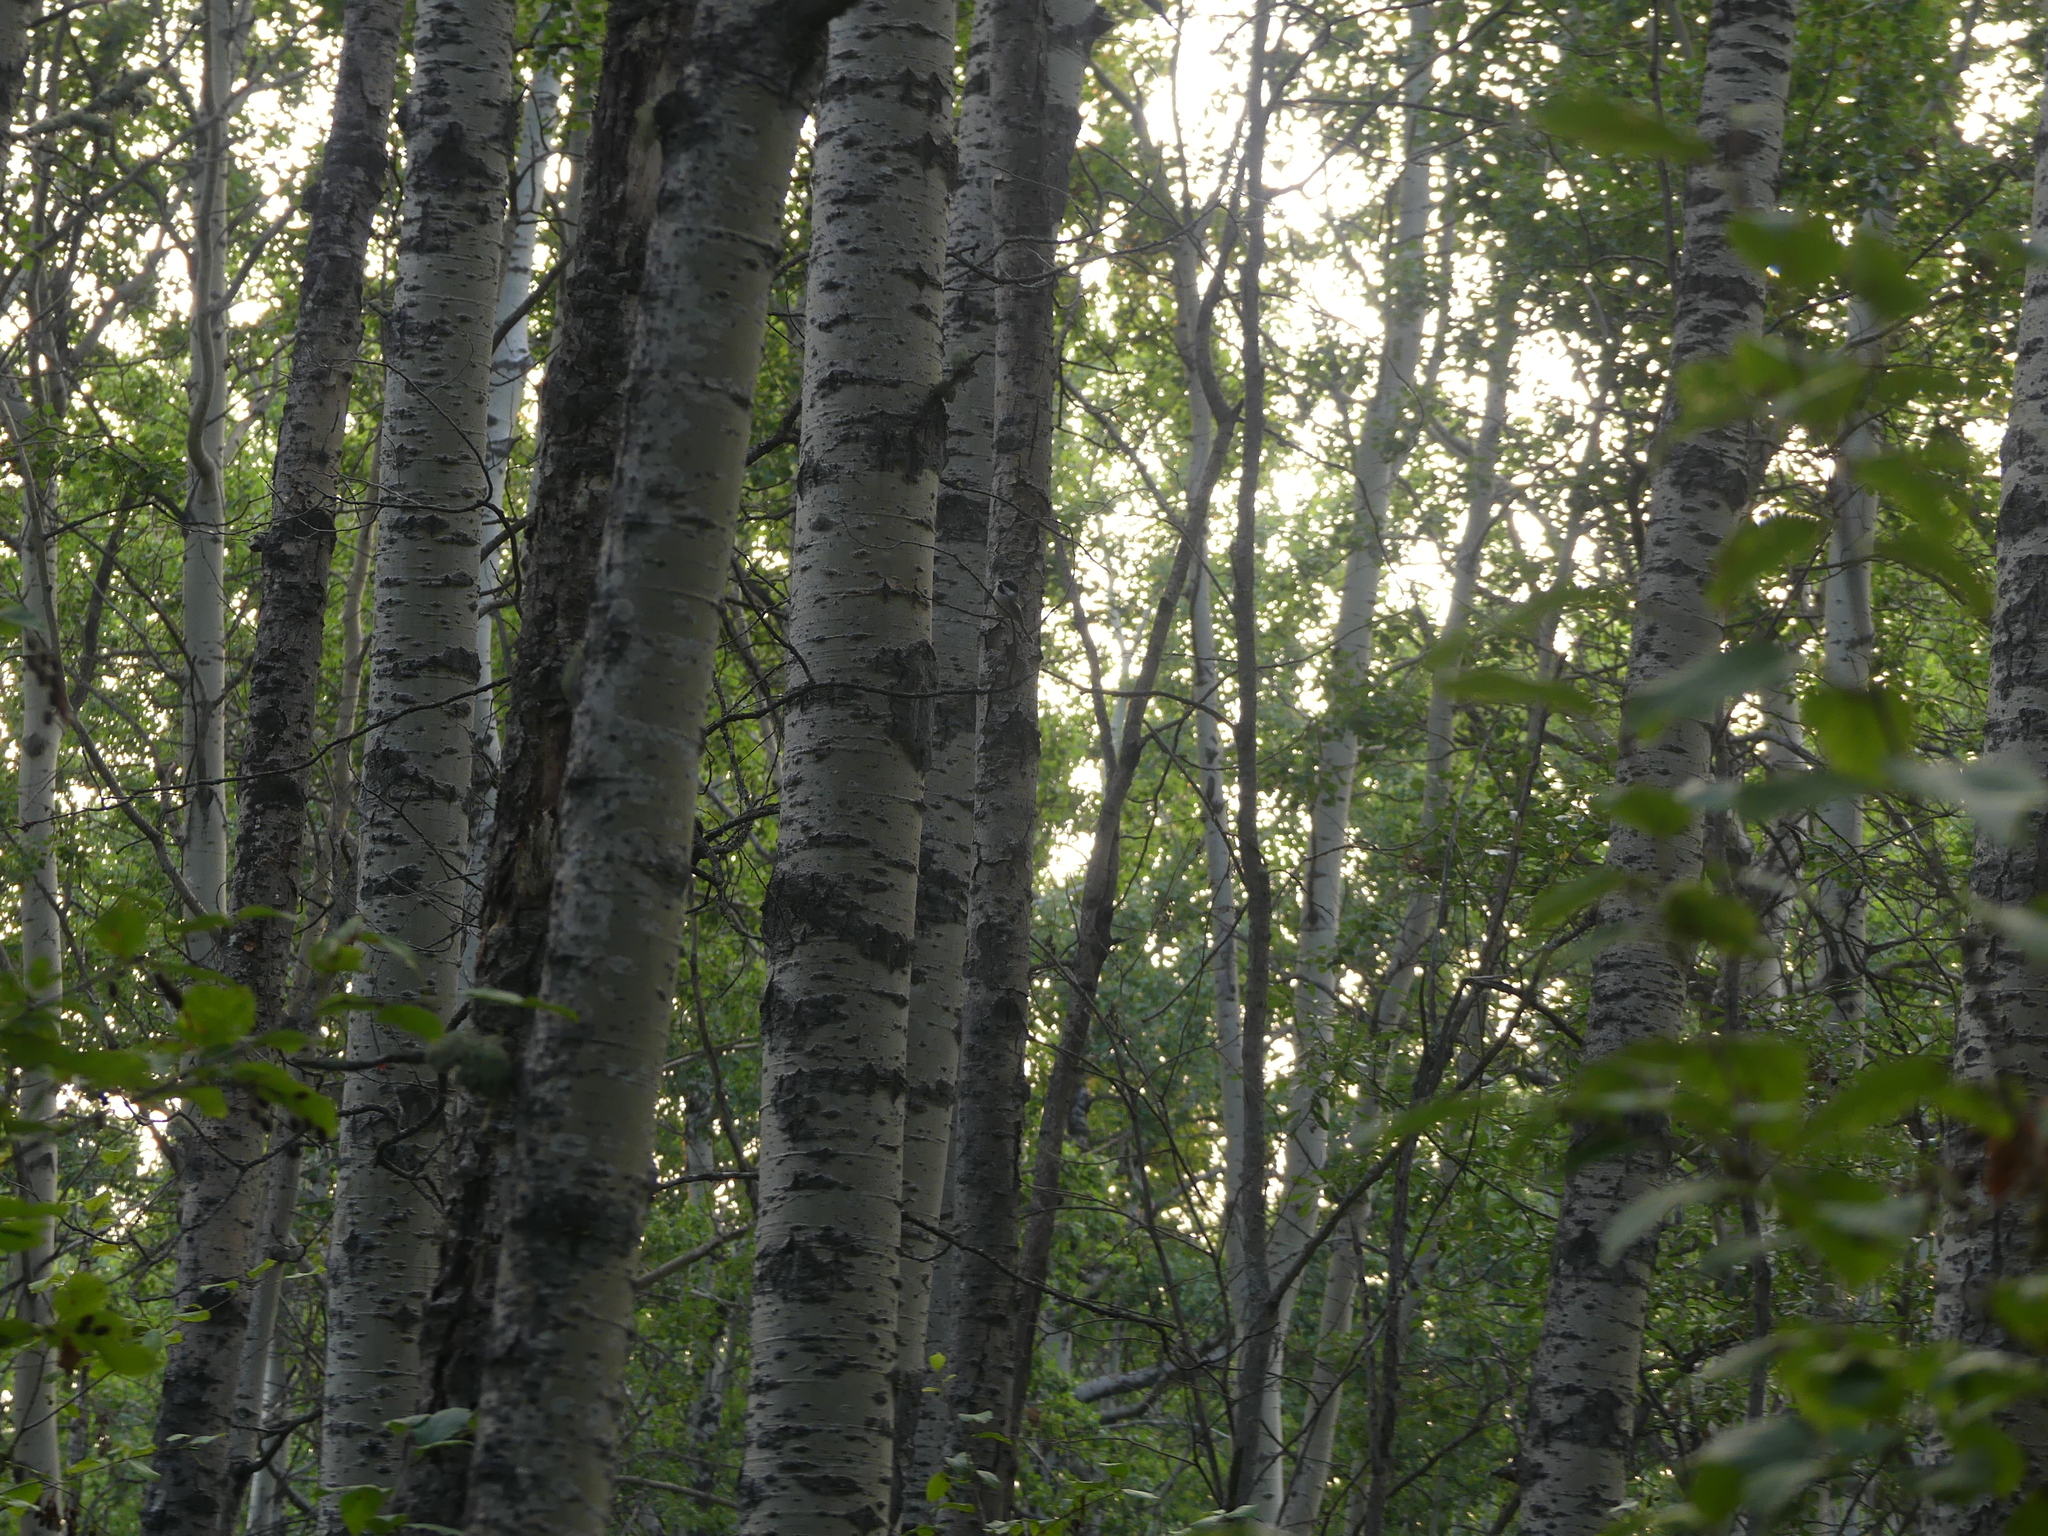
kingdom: Animalia
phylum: Chordata
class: Aves
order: Passeriformes
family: Paridae
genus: Poecile
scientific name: Poecile atricapillus
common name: Black-capped chickadee
